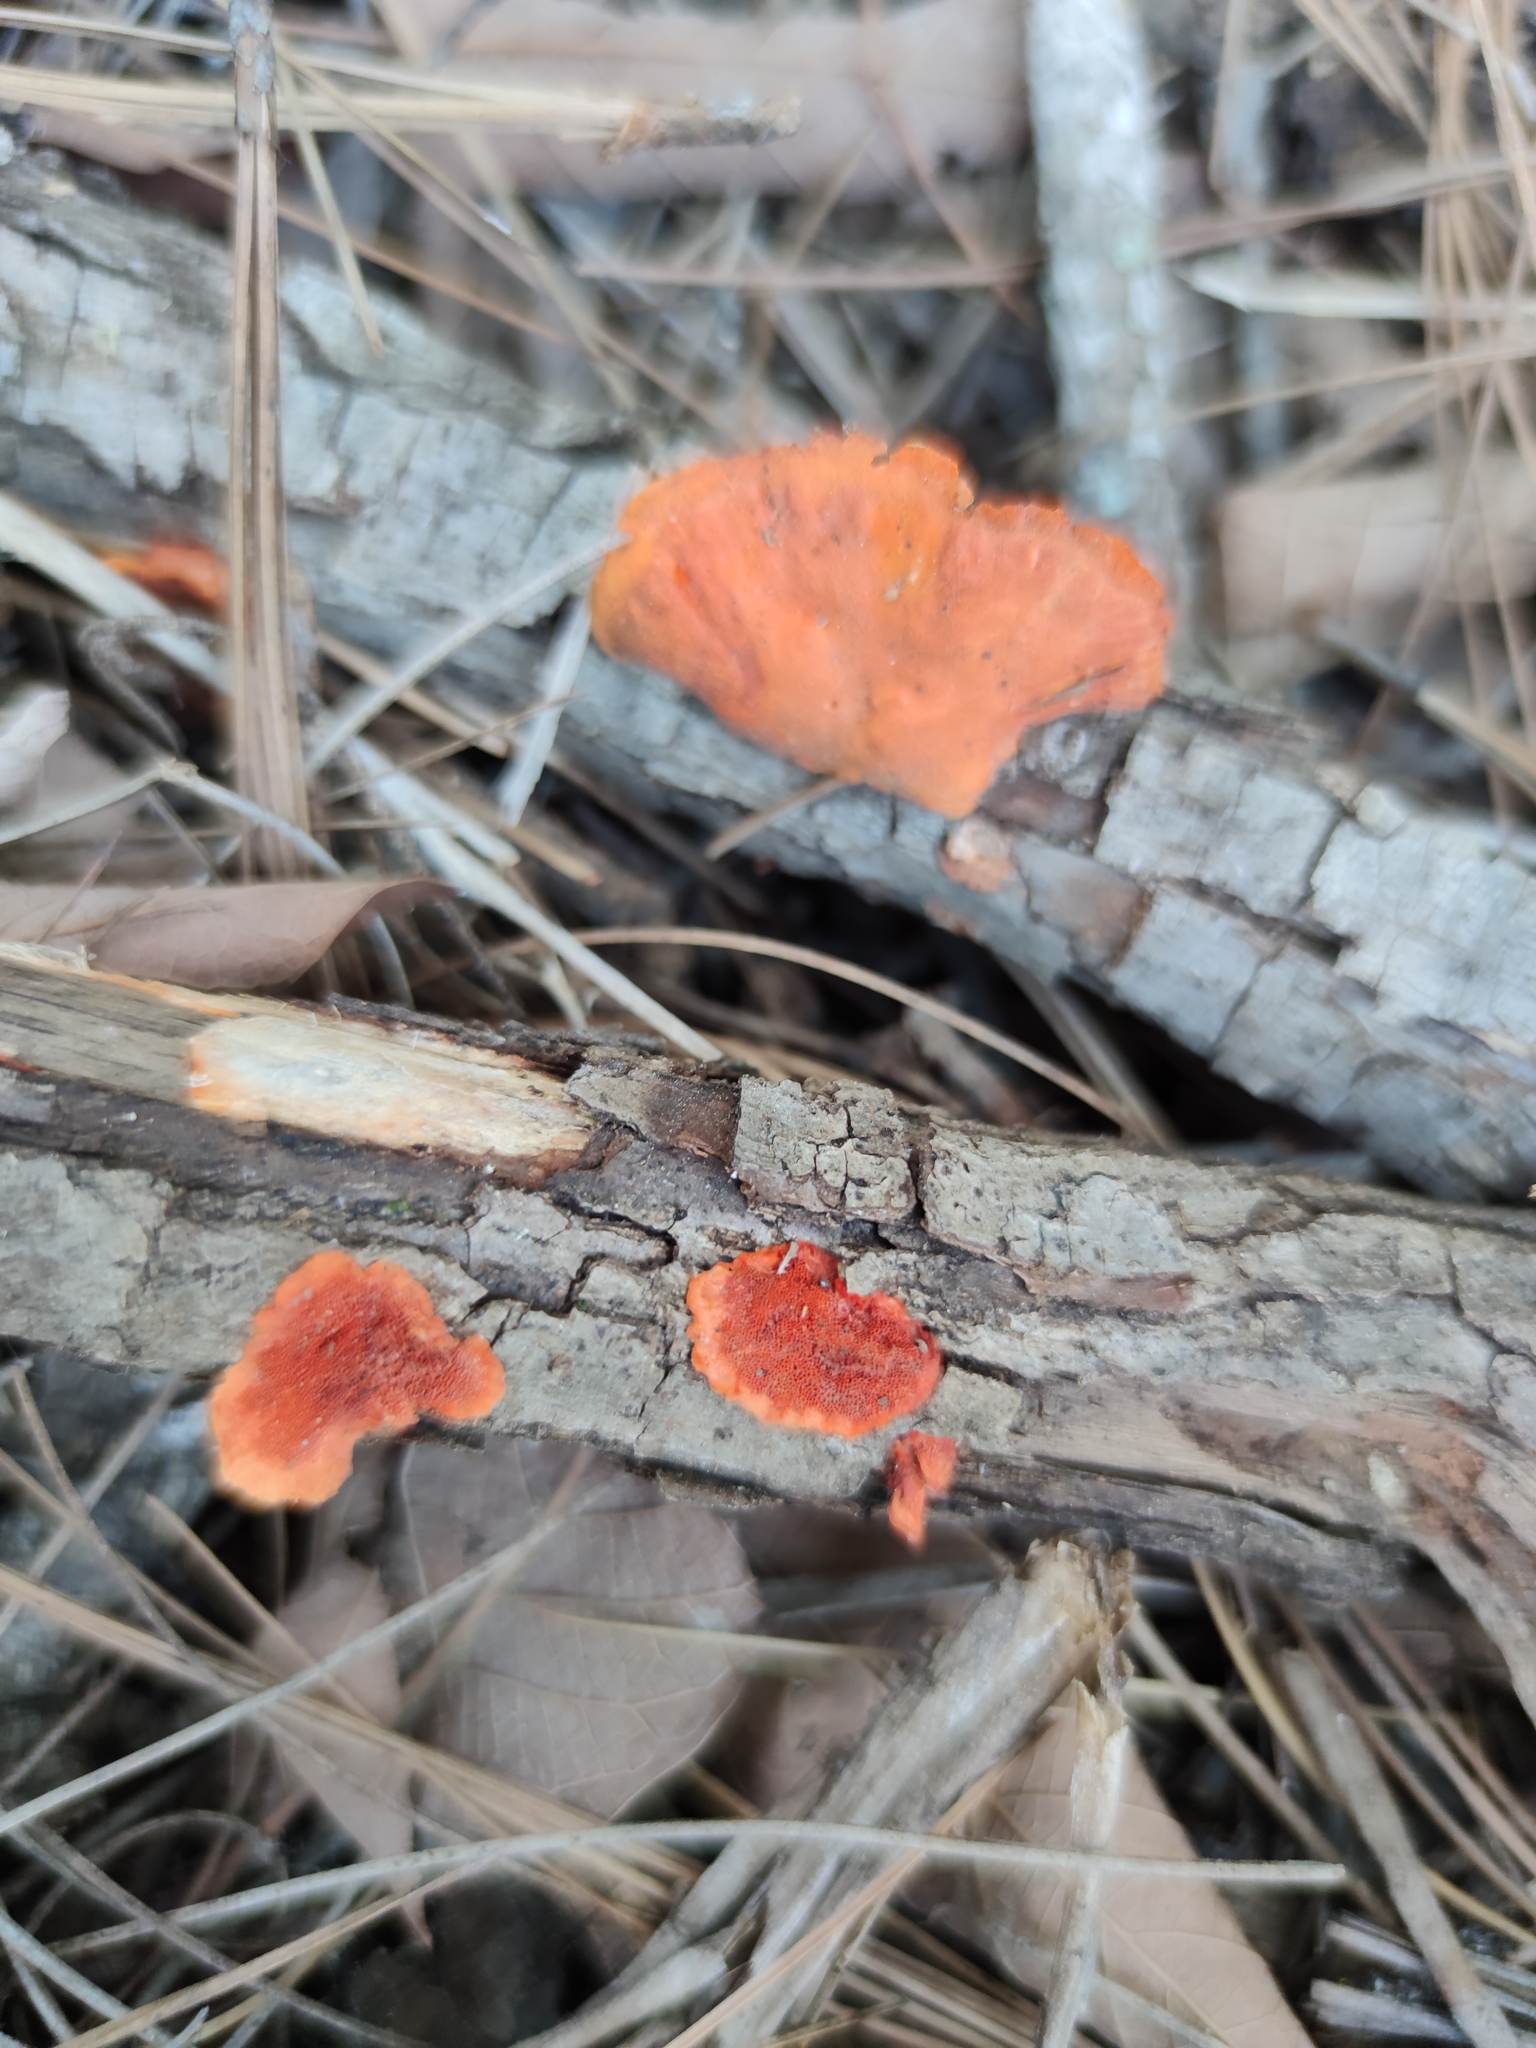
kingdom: Fungi
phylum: Basidiomycota
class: Agaricomycetes
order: Polyporales
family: Polyporaceae
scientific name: Polyporaceae
